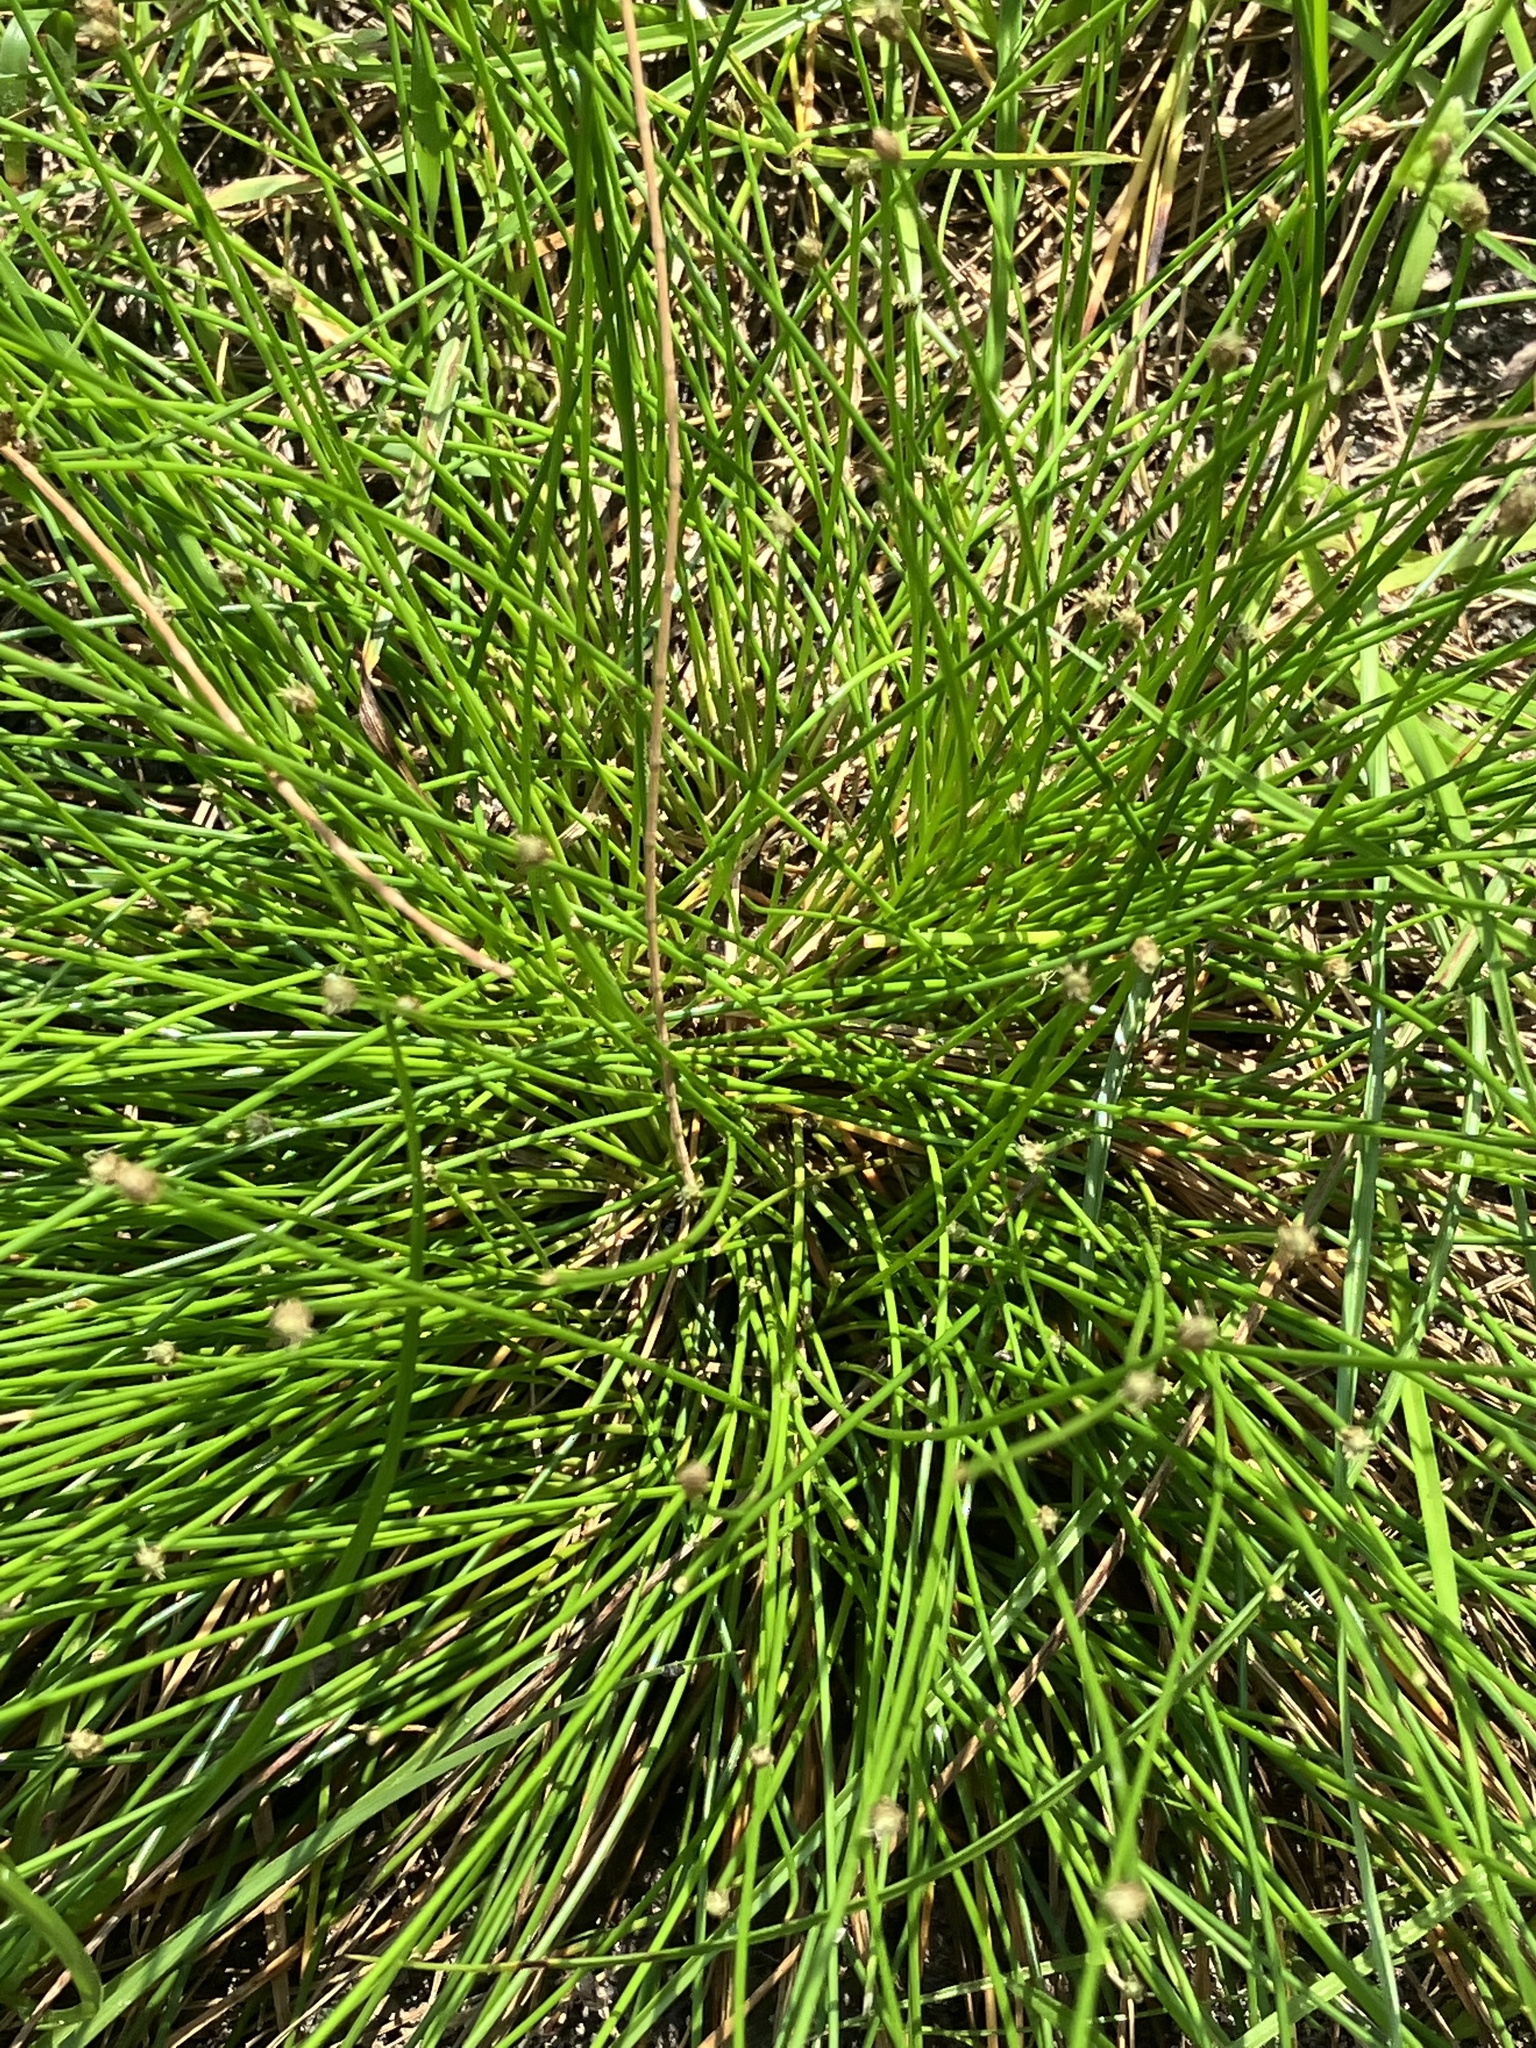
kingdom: Plantae
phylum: Tracheophyta
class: Liliopsida
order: Poales
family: Cyperaceae
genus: Eleocharis
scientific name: Eleocharis geniculata
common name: Canada spikesedge
